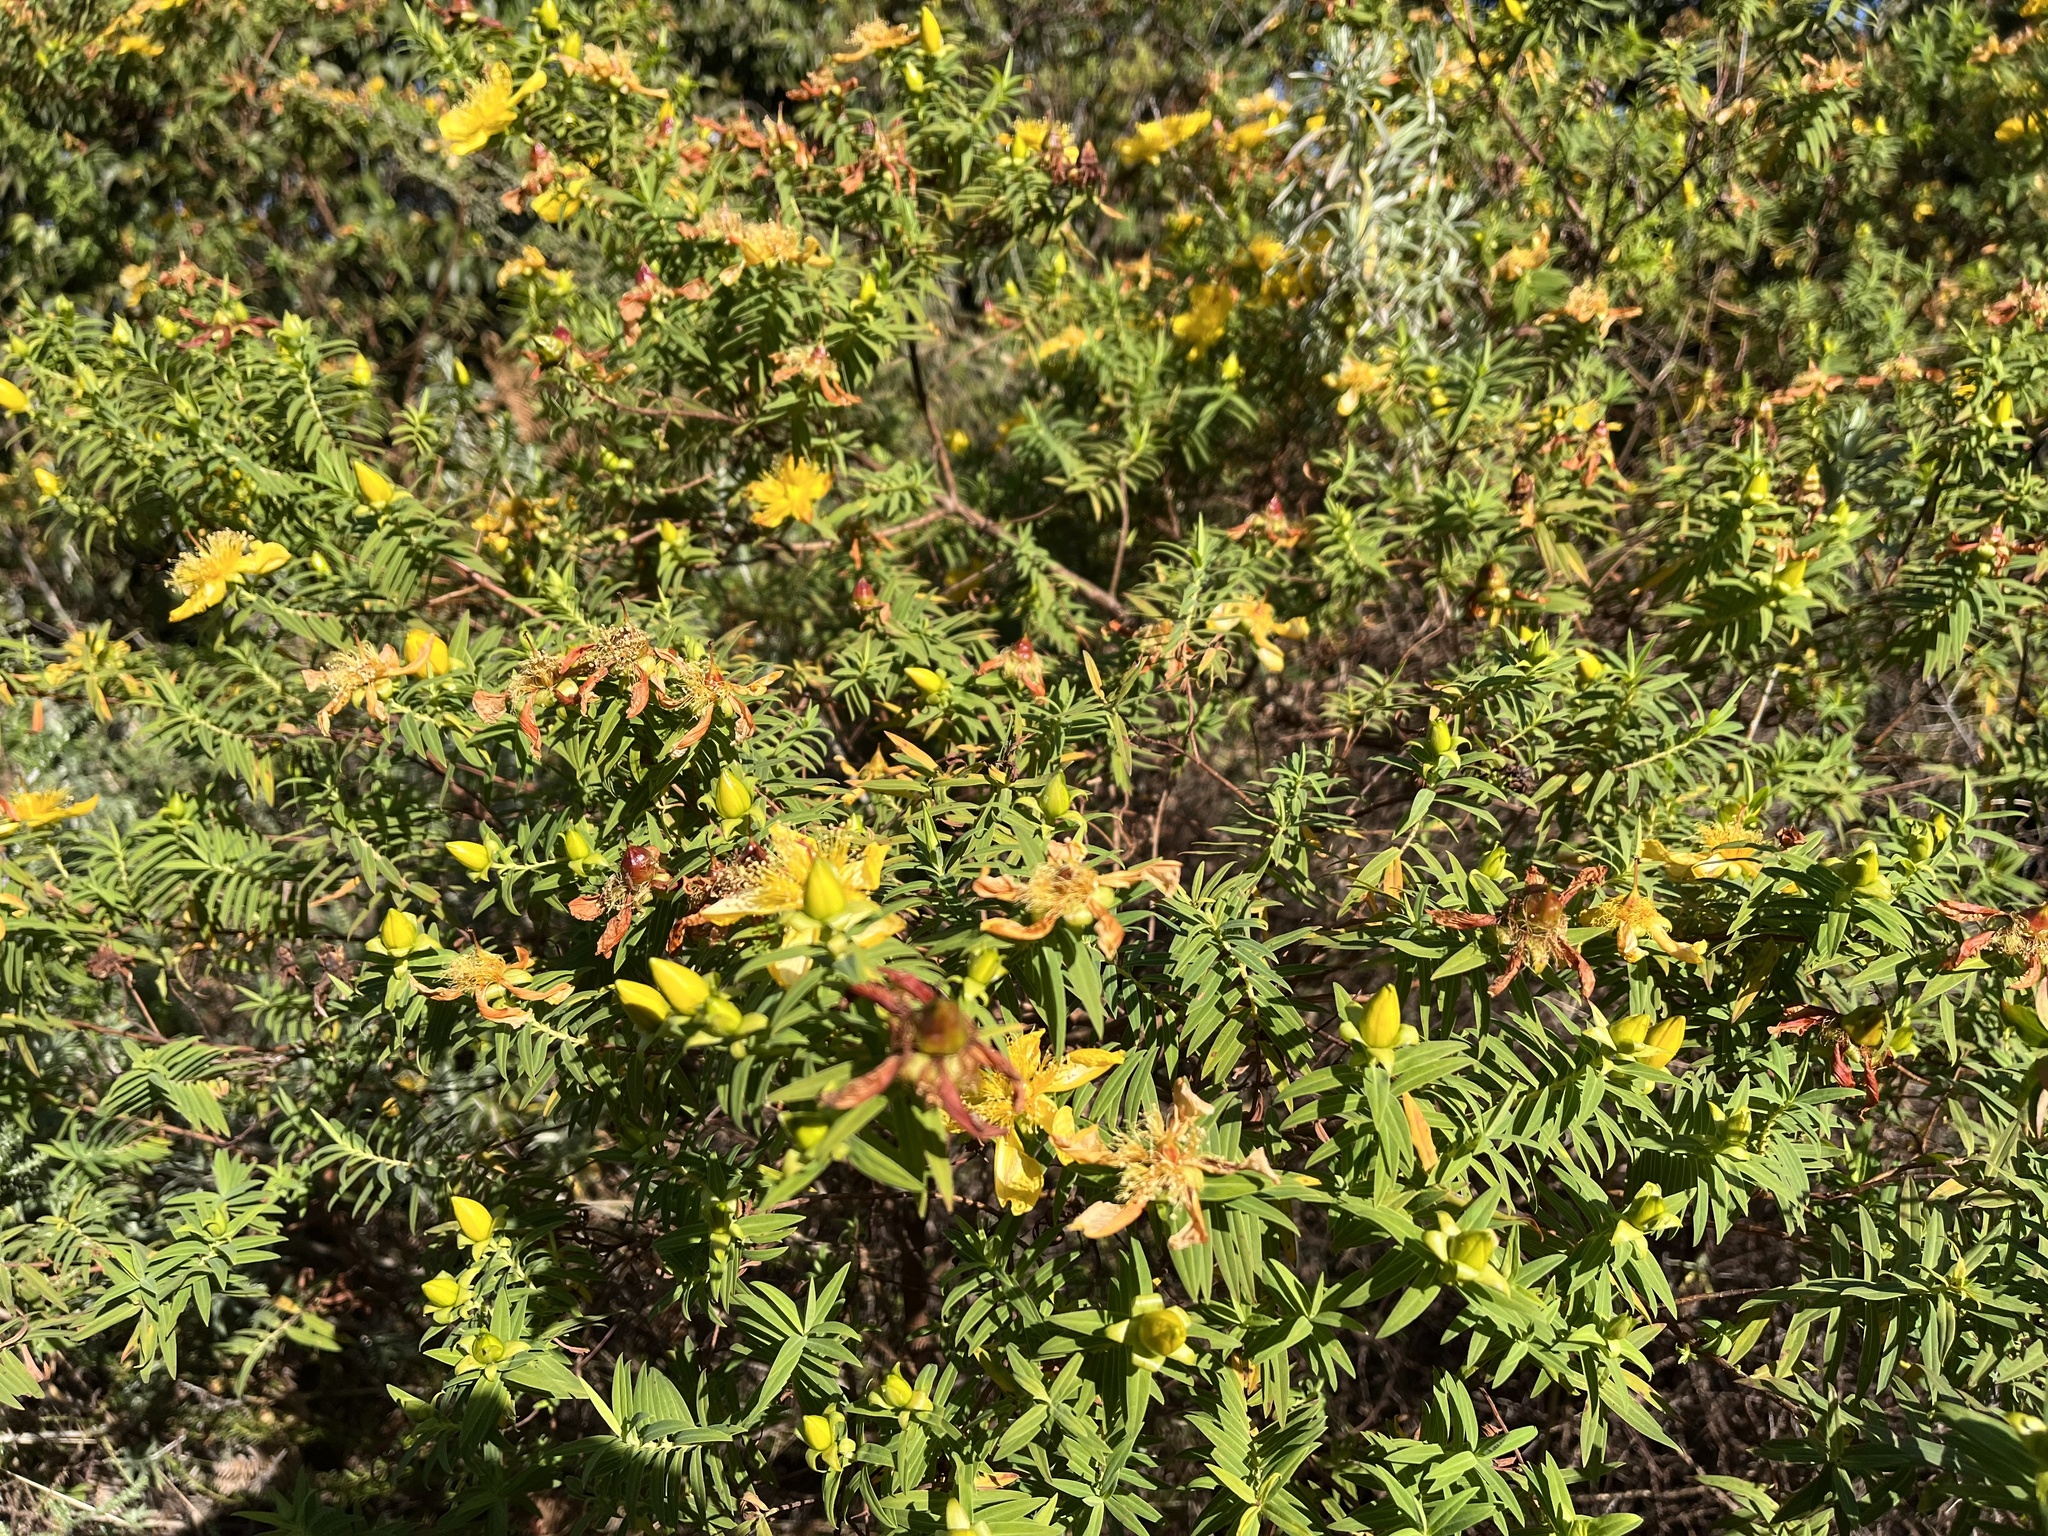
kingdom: Plantae
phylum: Tracheophyta
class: Magnoliopsida
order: Malpighiales
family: Hypericaceae
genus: Hypericum
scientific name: Hypericum revolutum
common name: Curry bush
